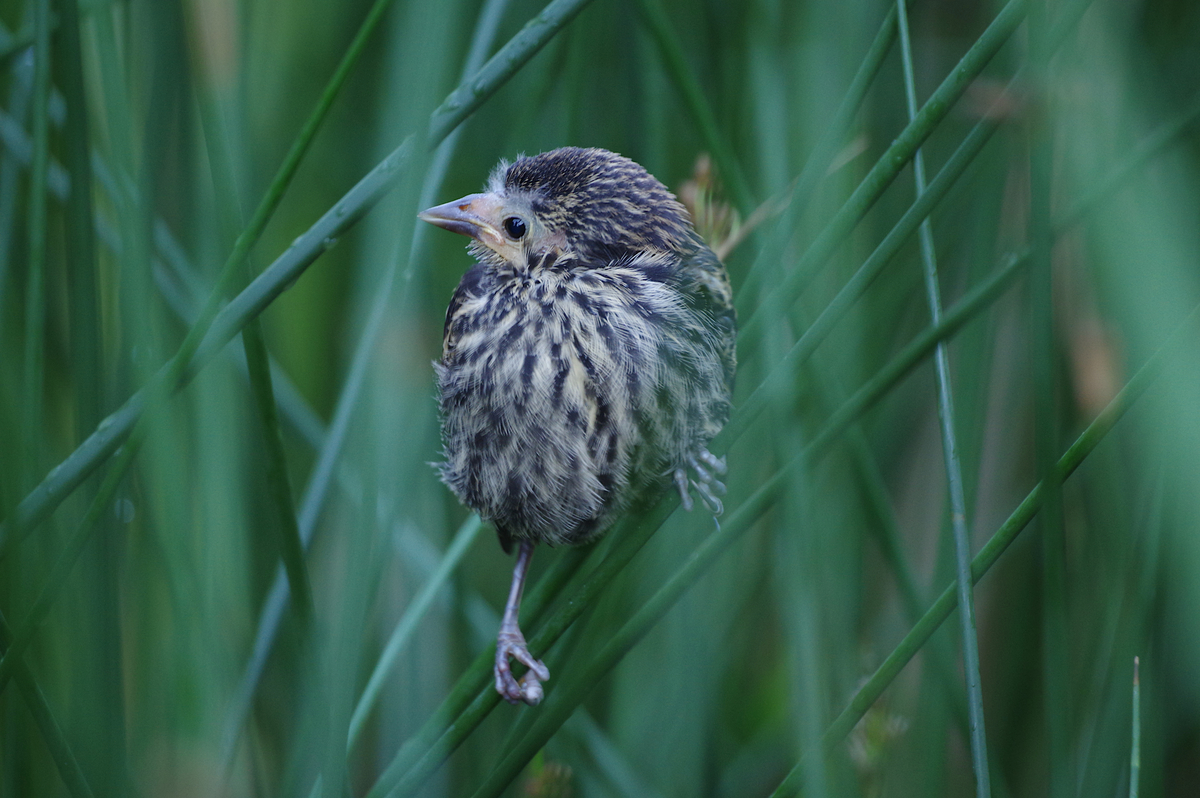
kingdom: Animalia
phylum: Chordata
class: Aves
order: Passeriformes
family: Icteridae
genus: Agelaius
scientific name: Agelaius phoeniceus
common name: Red-winged blackbird
